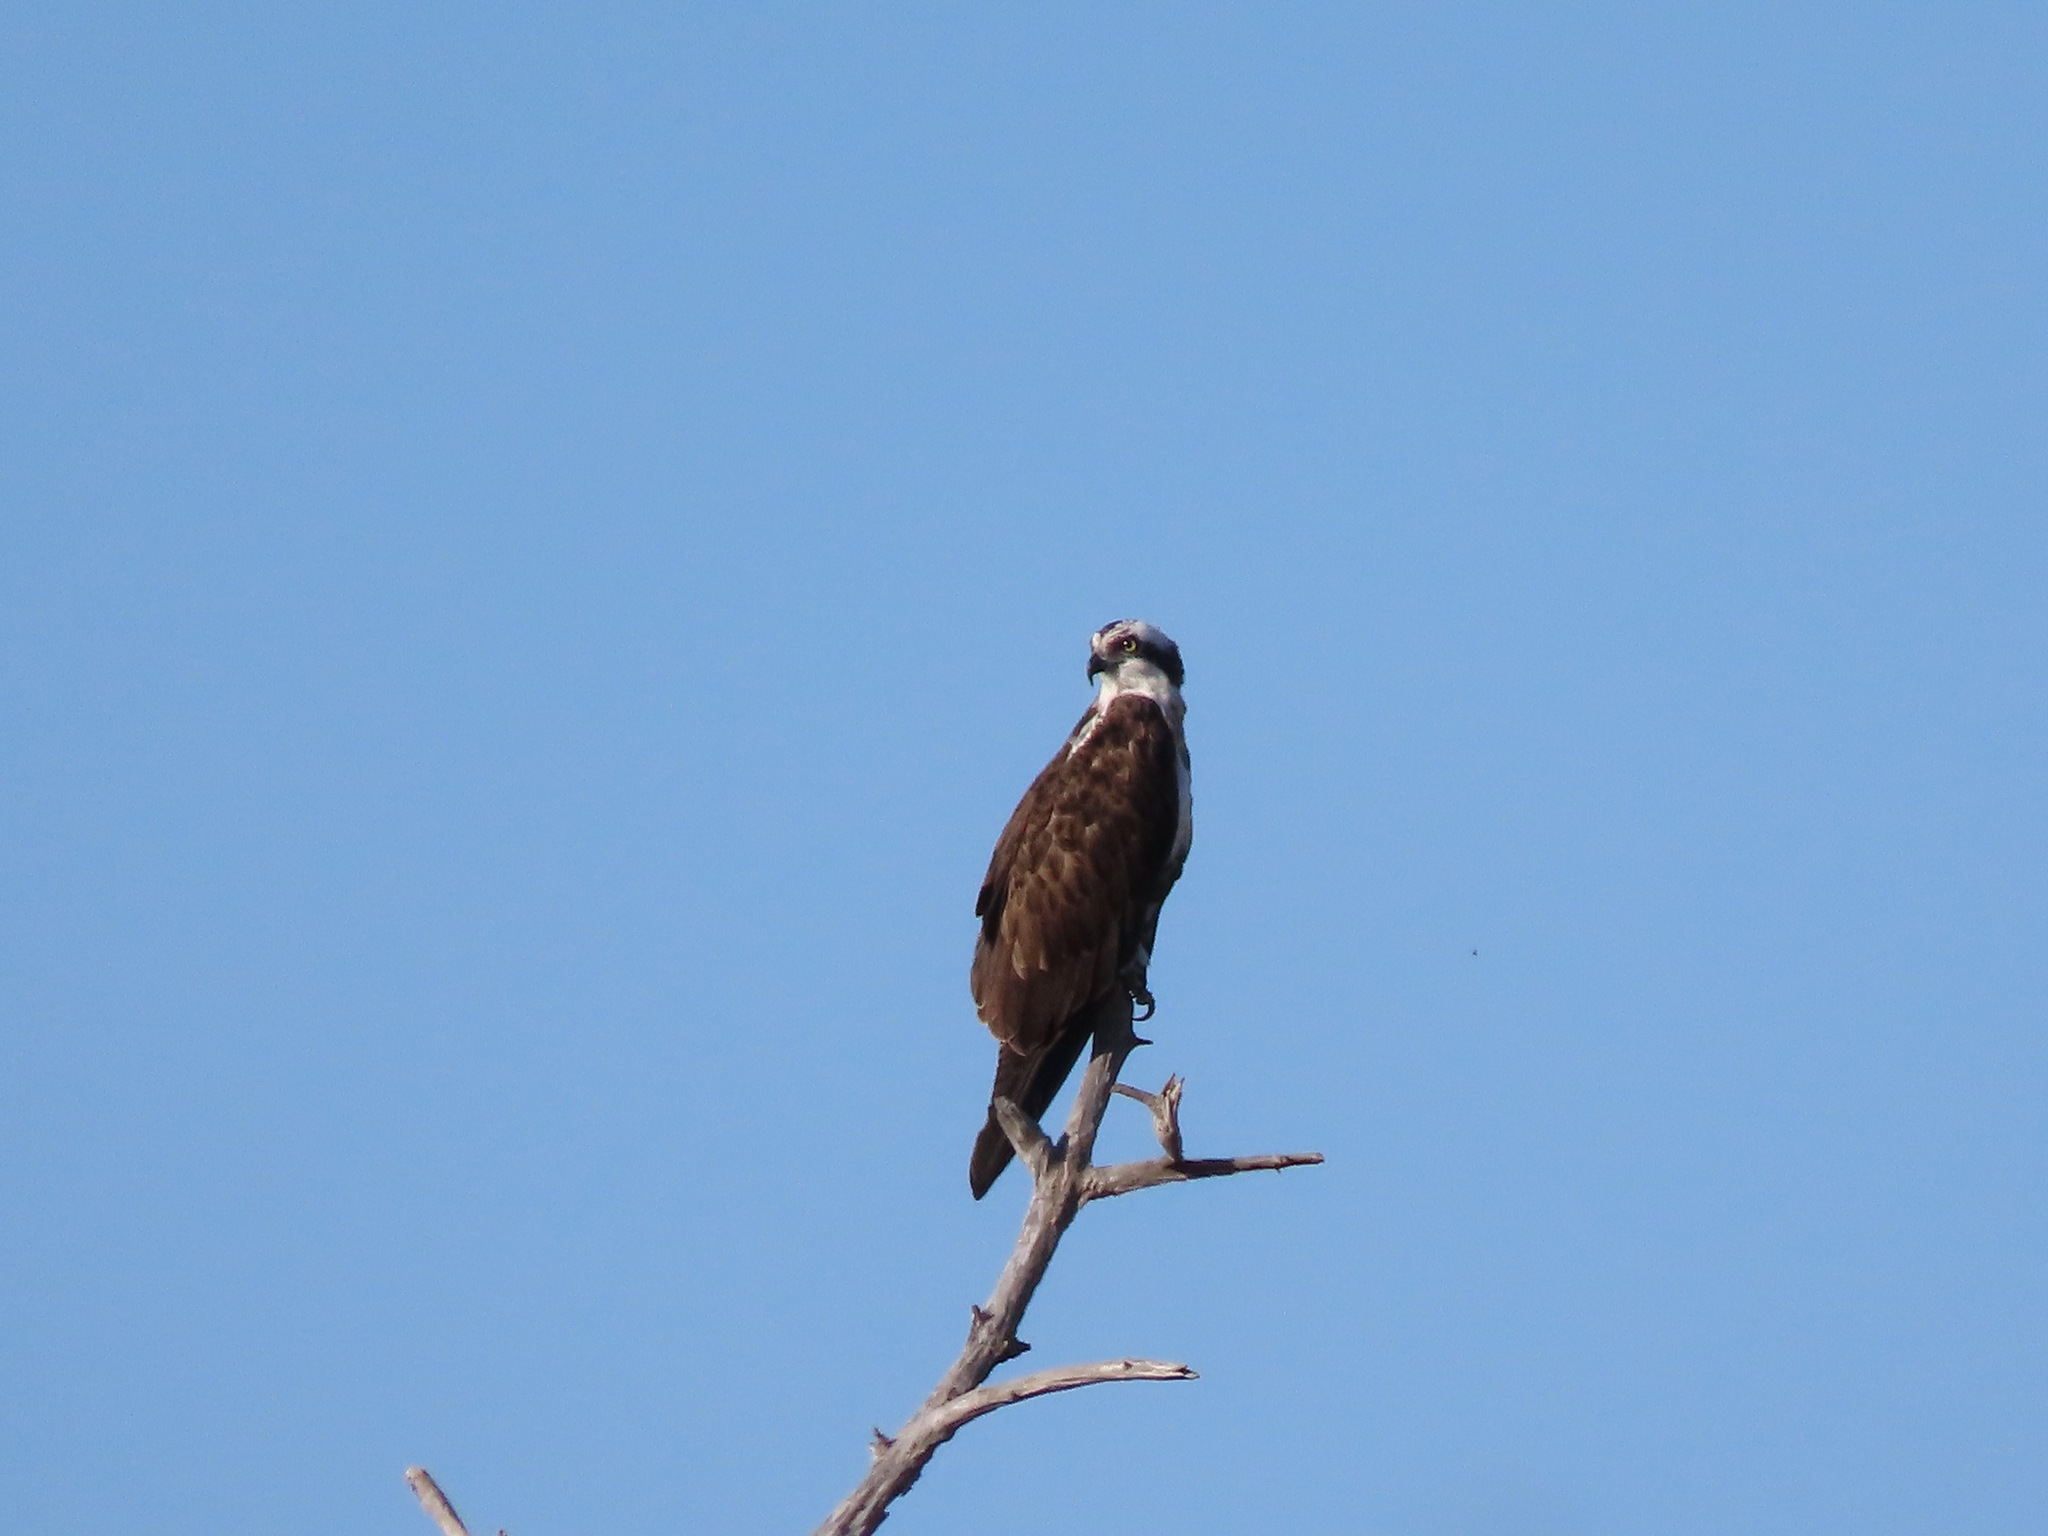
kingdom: Animalia
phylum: Chordata
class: Aves
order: Accipitriformes
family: Pandionidae
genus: Pandion
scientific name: Pandion haliaetus
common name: Osprey
